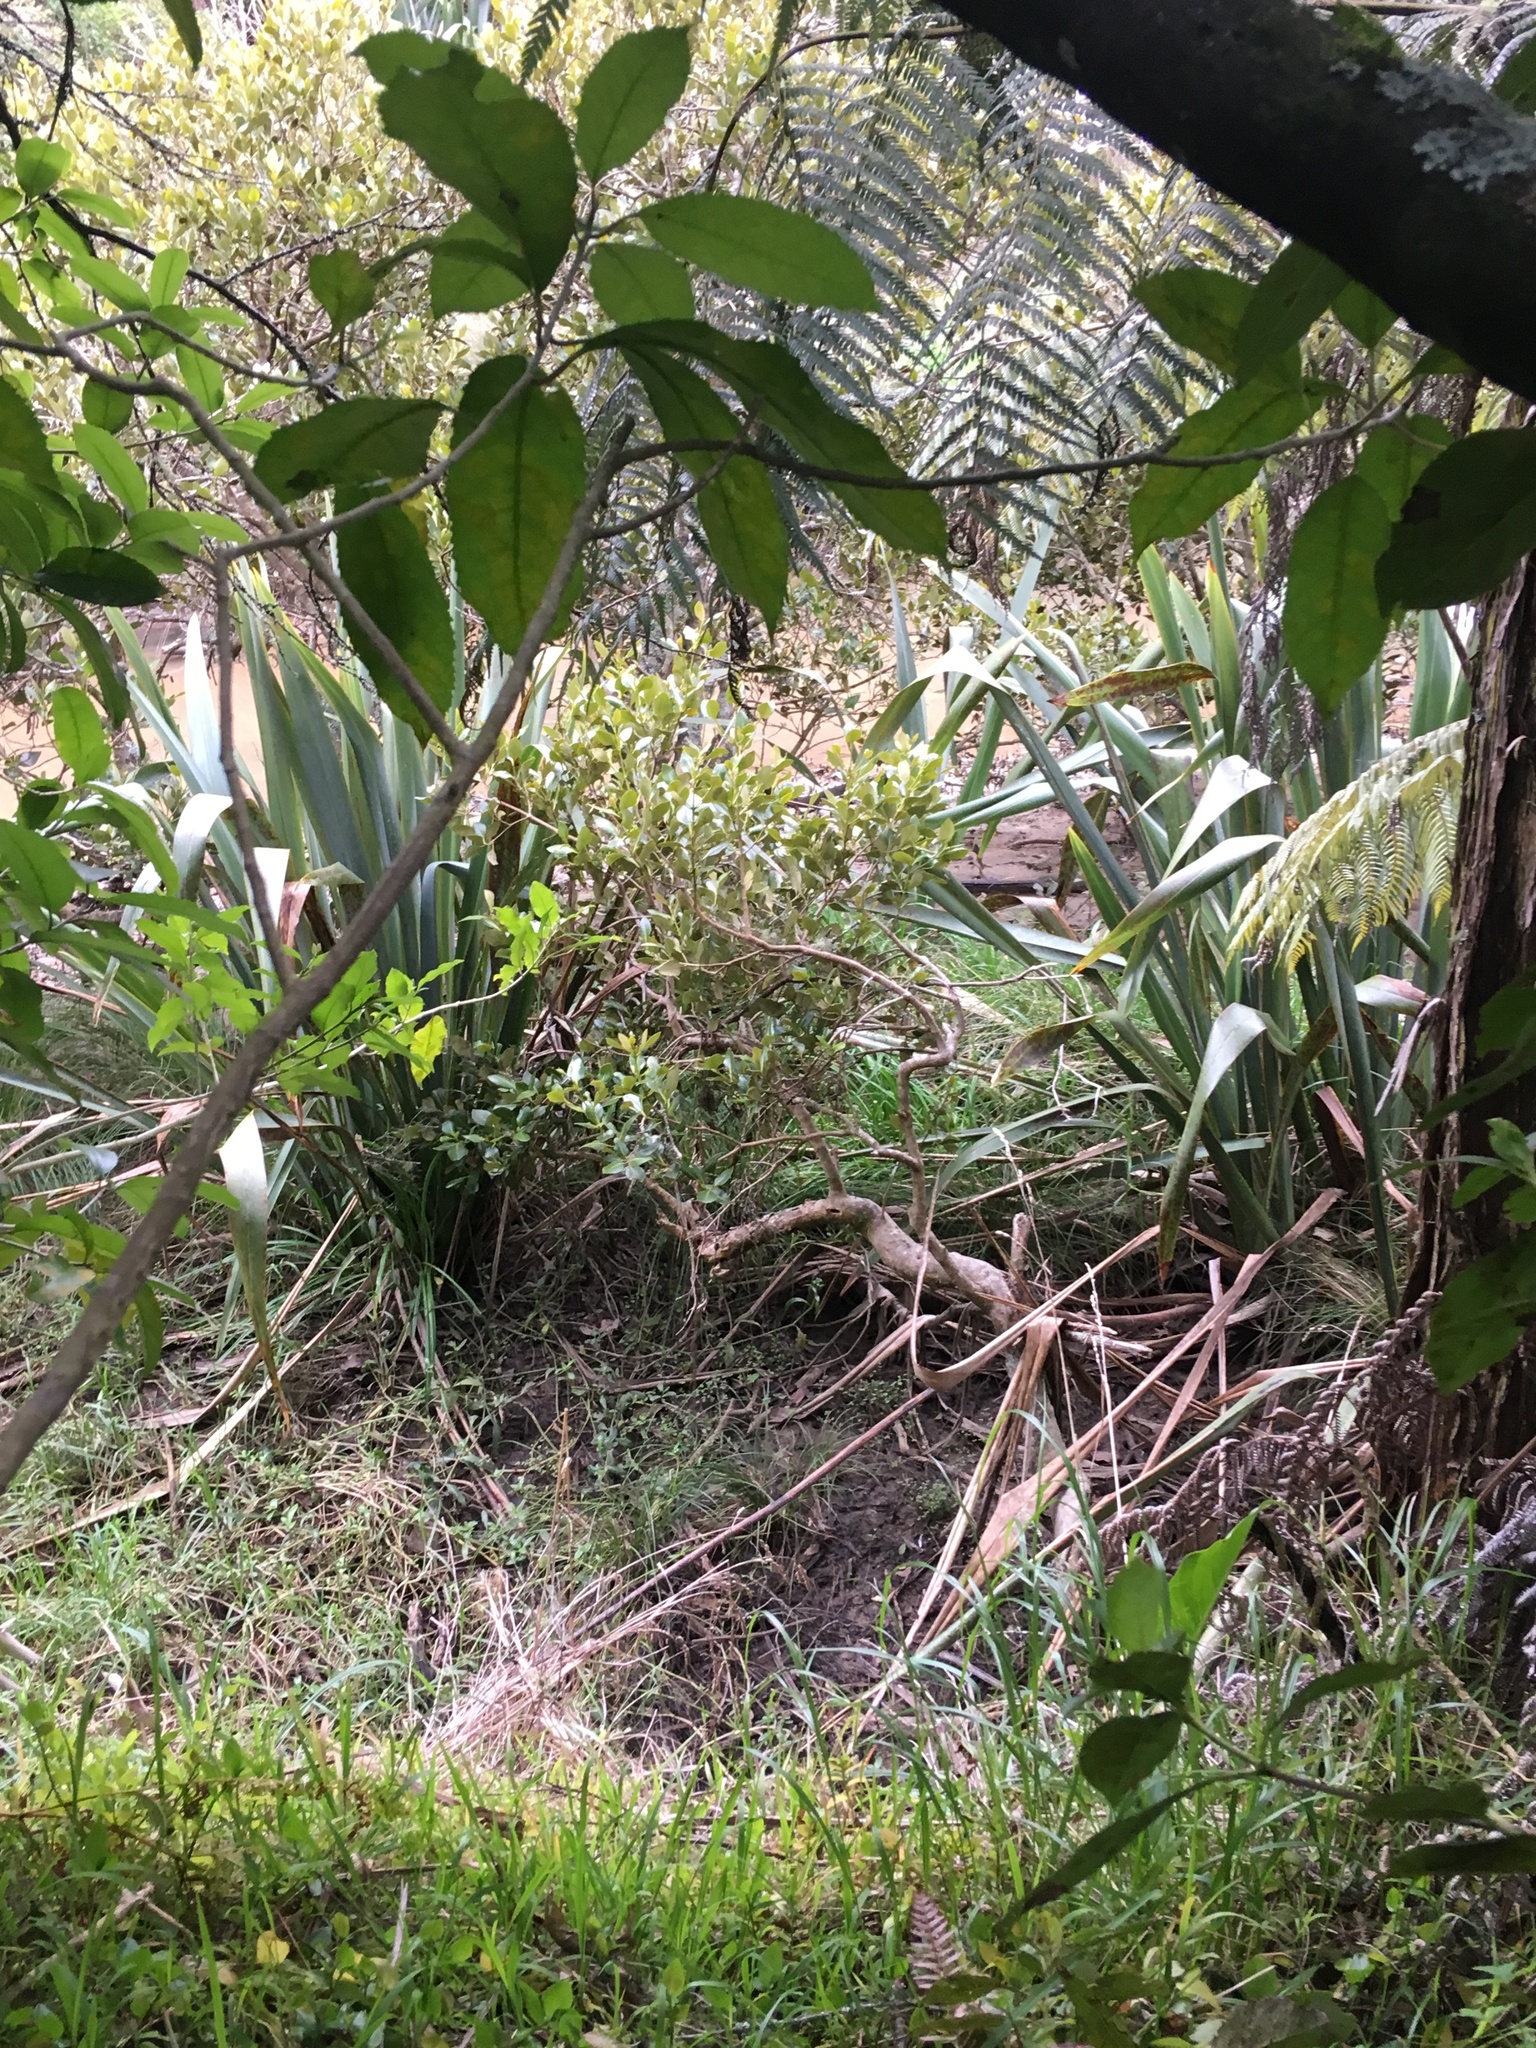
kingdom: Plantae
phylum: Tracheophyta
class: Magnoliopsida
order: Malpighiales
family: Violaceae
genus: Melicytus
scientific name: Melicytus ramiflorus
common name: Mahoe
